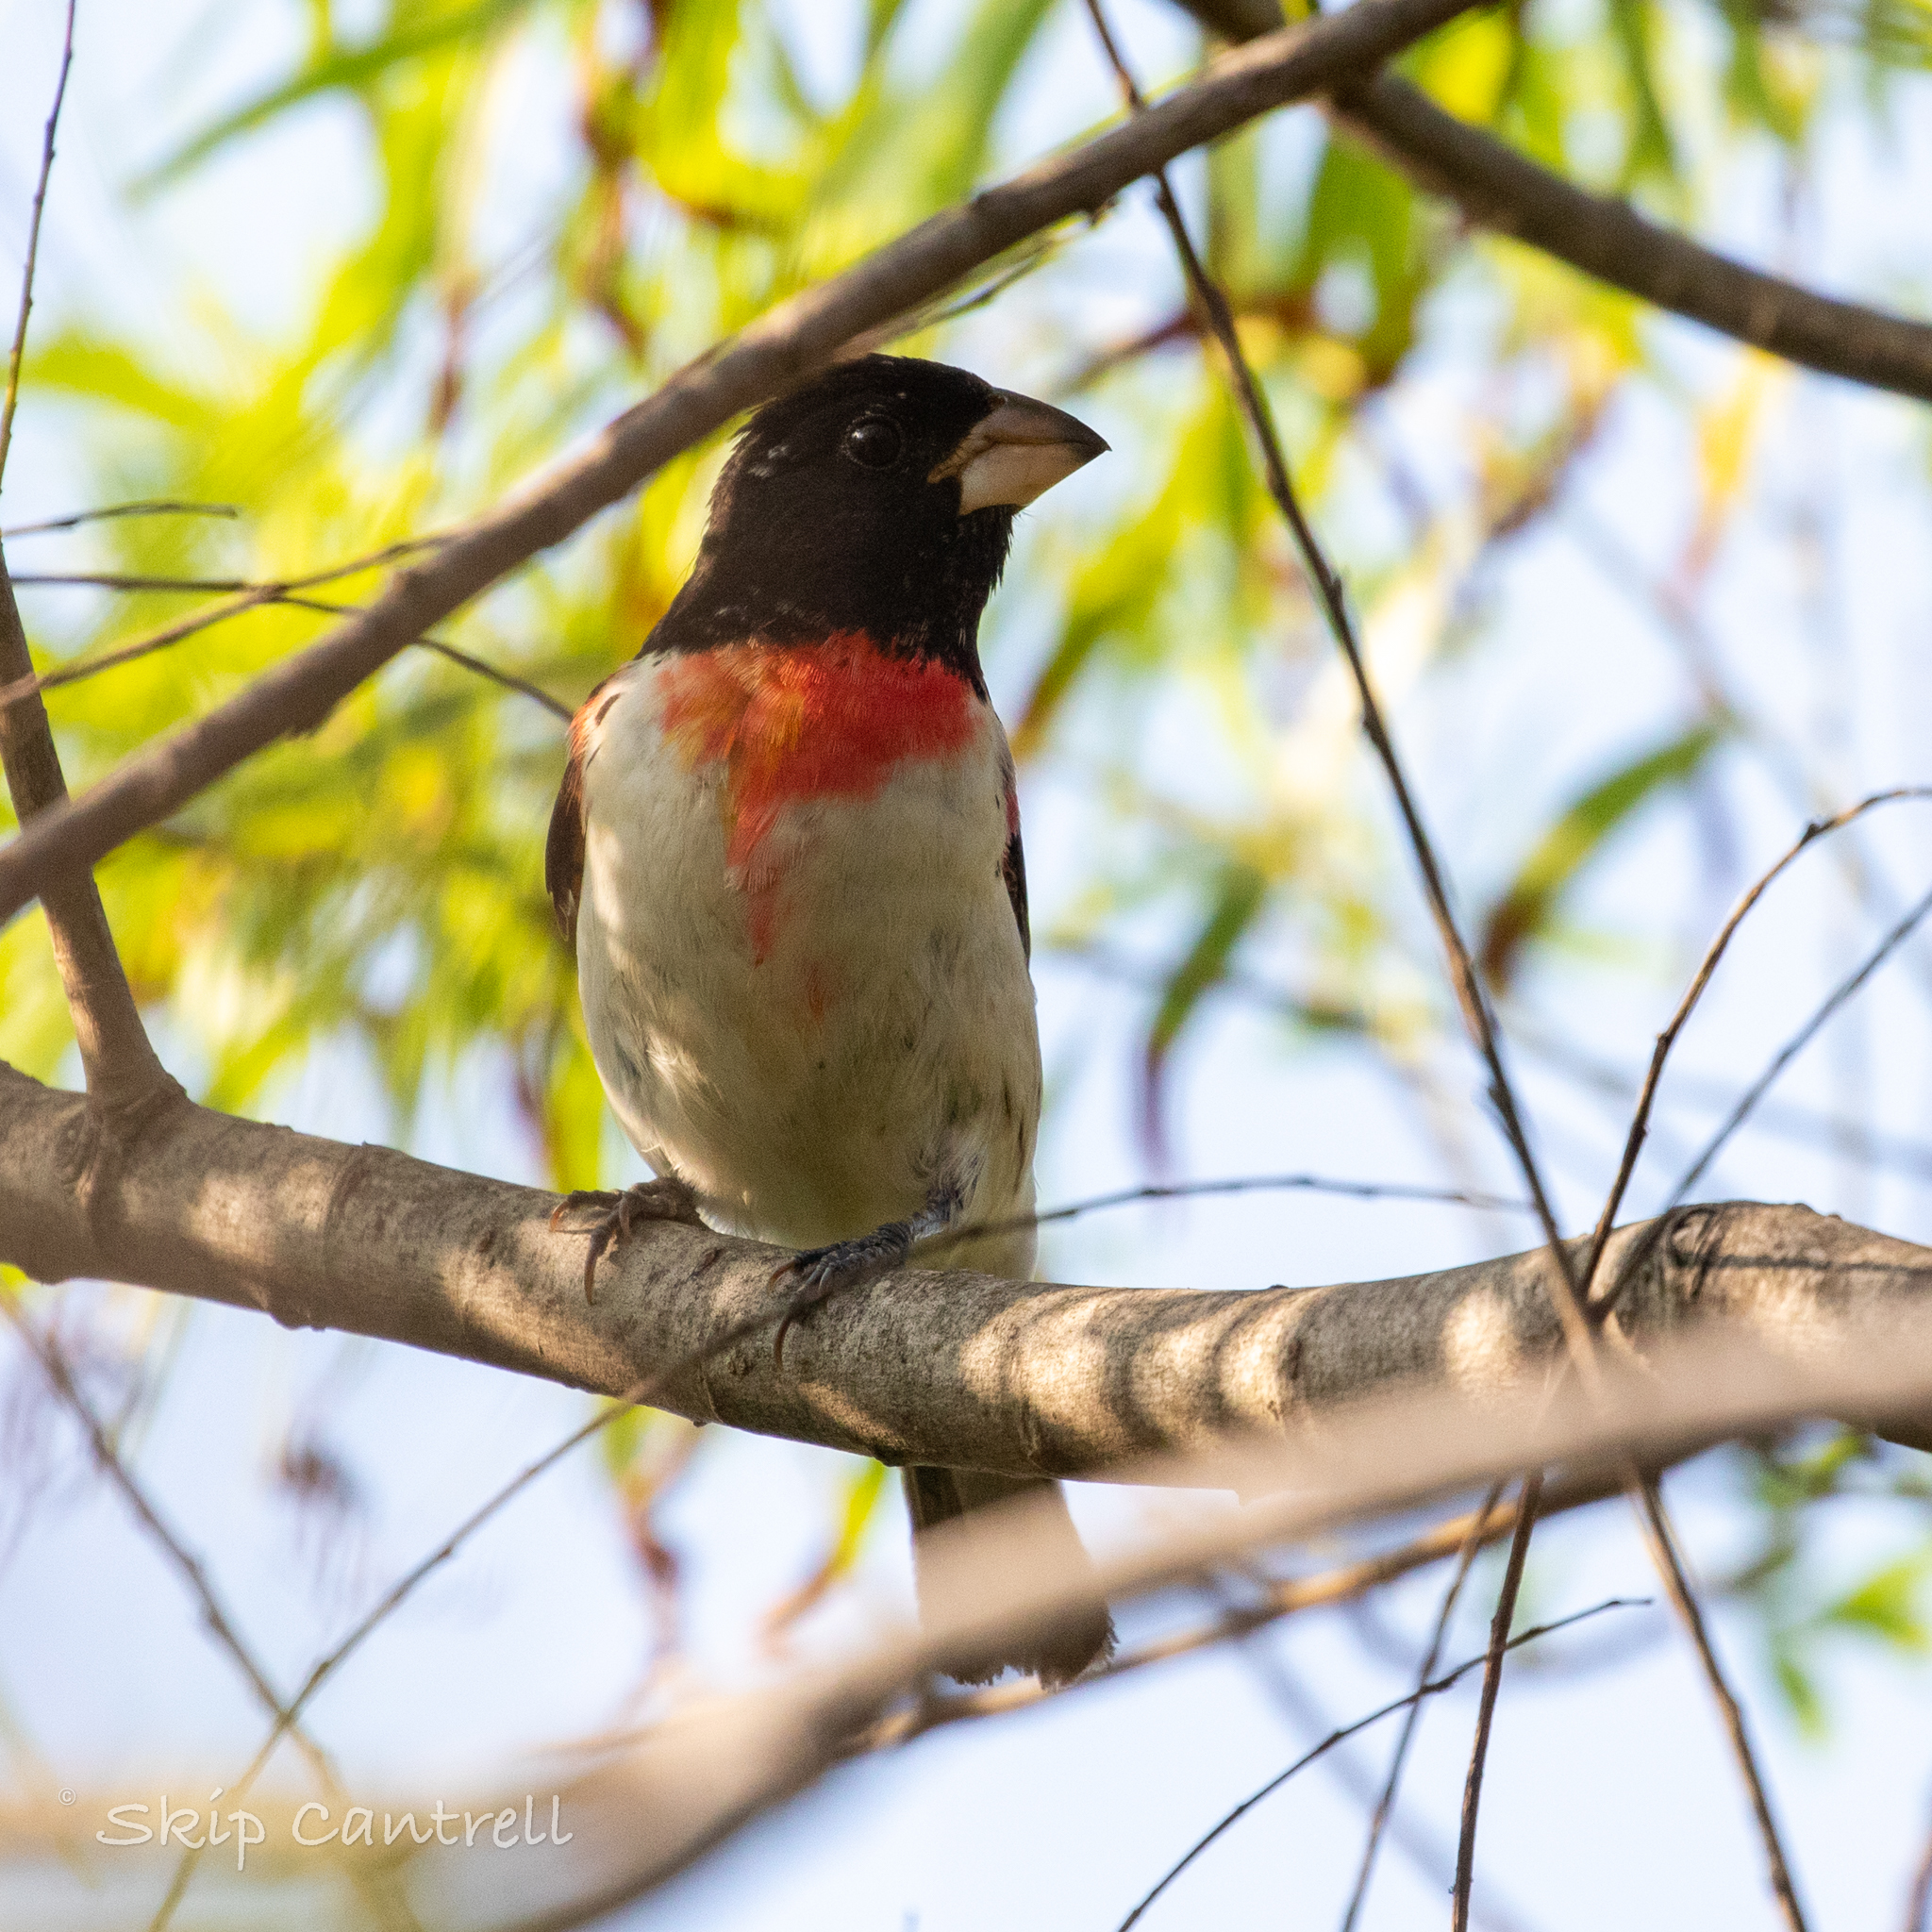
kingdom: Animalia
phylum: Chordata
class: Aves
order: Passeriformes
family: Cardinalidae
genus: Pheucticus
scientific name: Pheucticus ludovicianus
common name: Rose-breasted grosbeak
